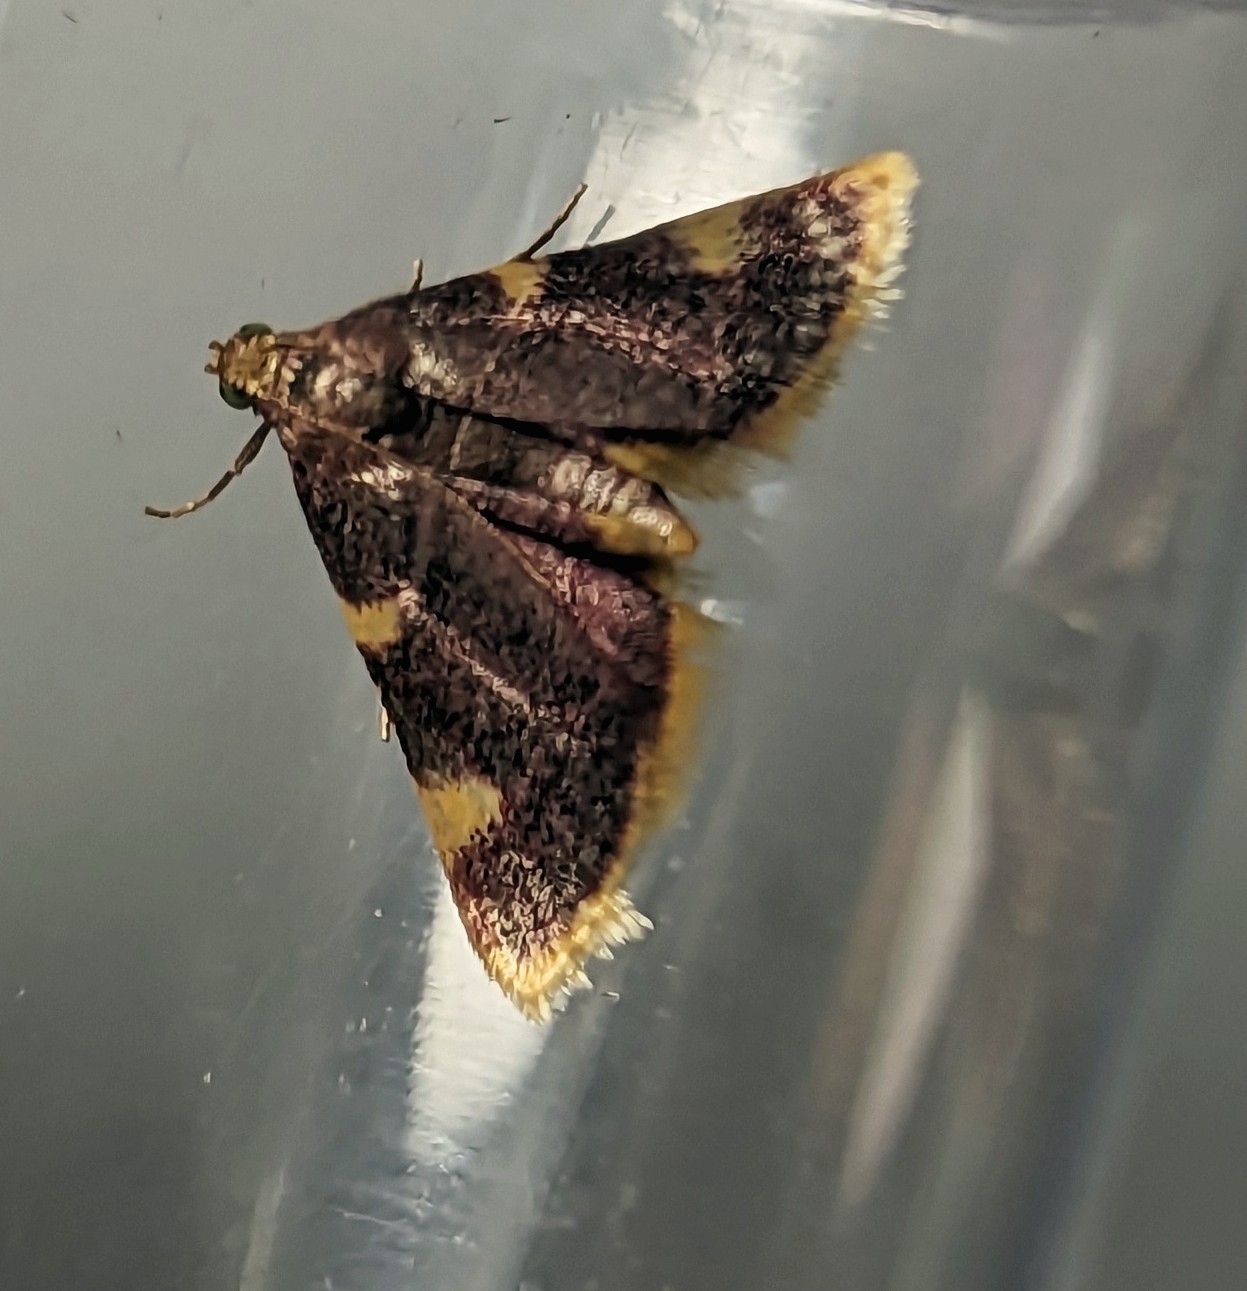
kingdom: Animalia
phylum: Arthropoda
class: Insecta
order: Lepidoptera
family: Pyralidae
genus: Hypsopygia
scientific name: Hypsopygia costalis
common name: Gold triangle
